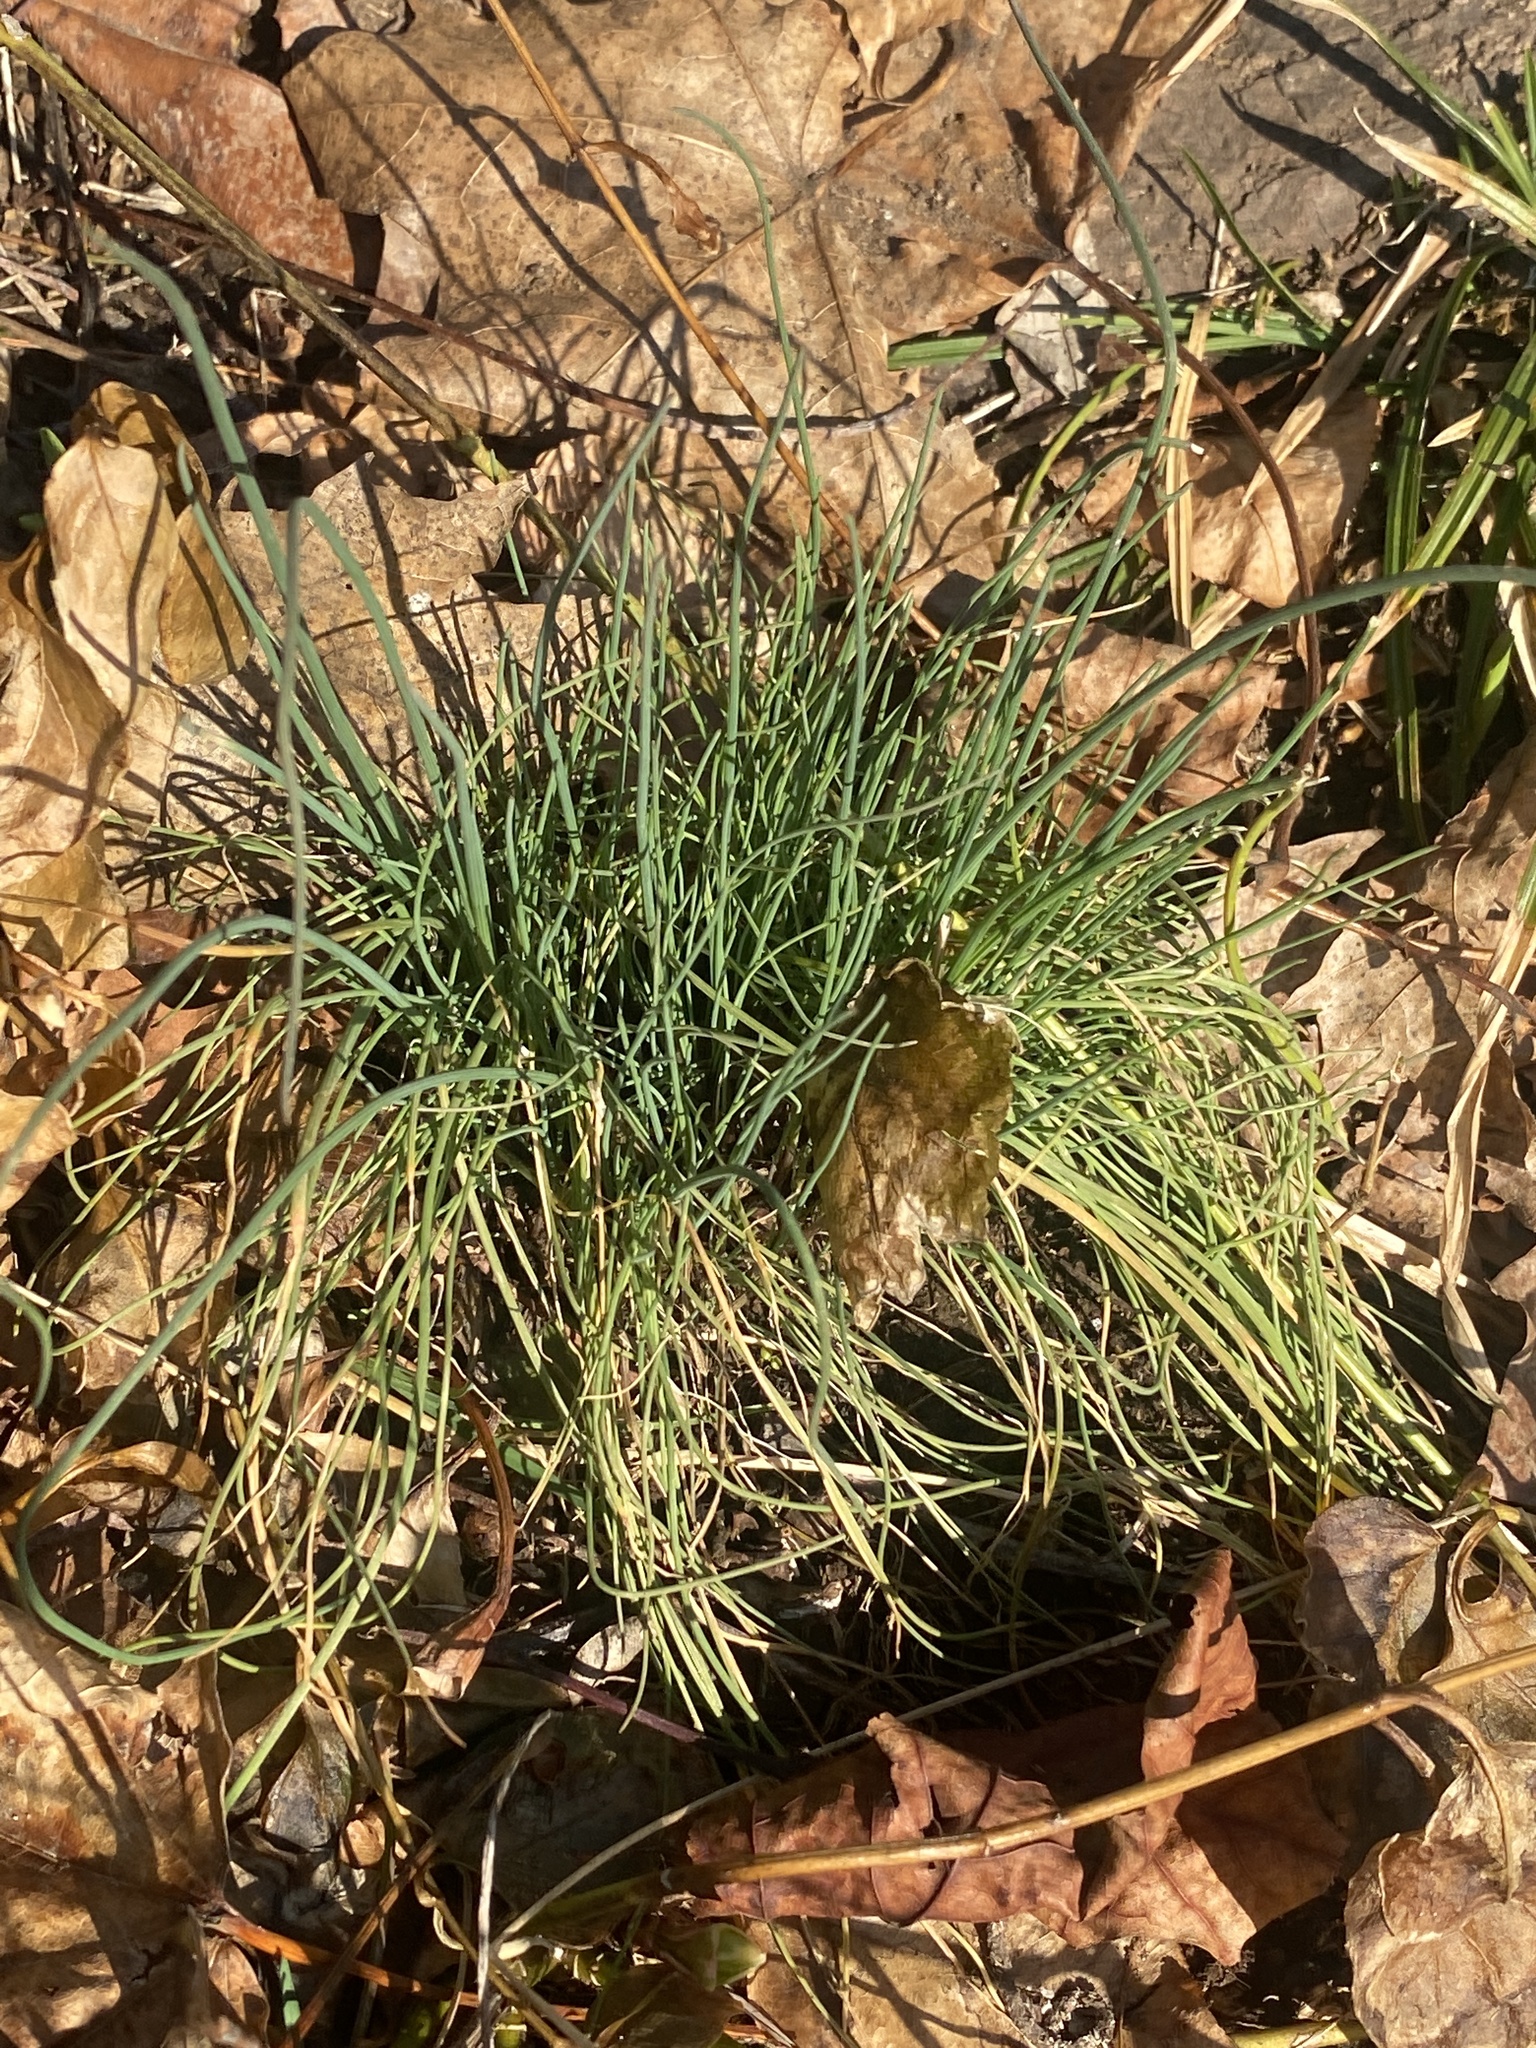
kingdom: Plantae
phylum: Tracheophyta
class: Liliopsida
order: Asparagales
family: Amaryllidaceae
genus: Allium
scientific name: Allium vineale
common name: Crow garlic
